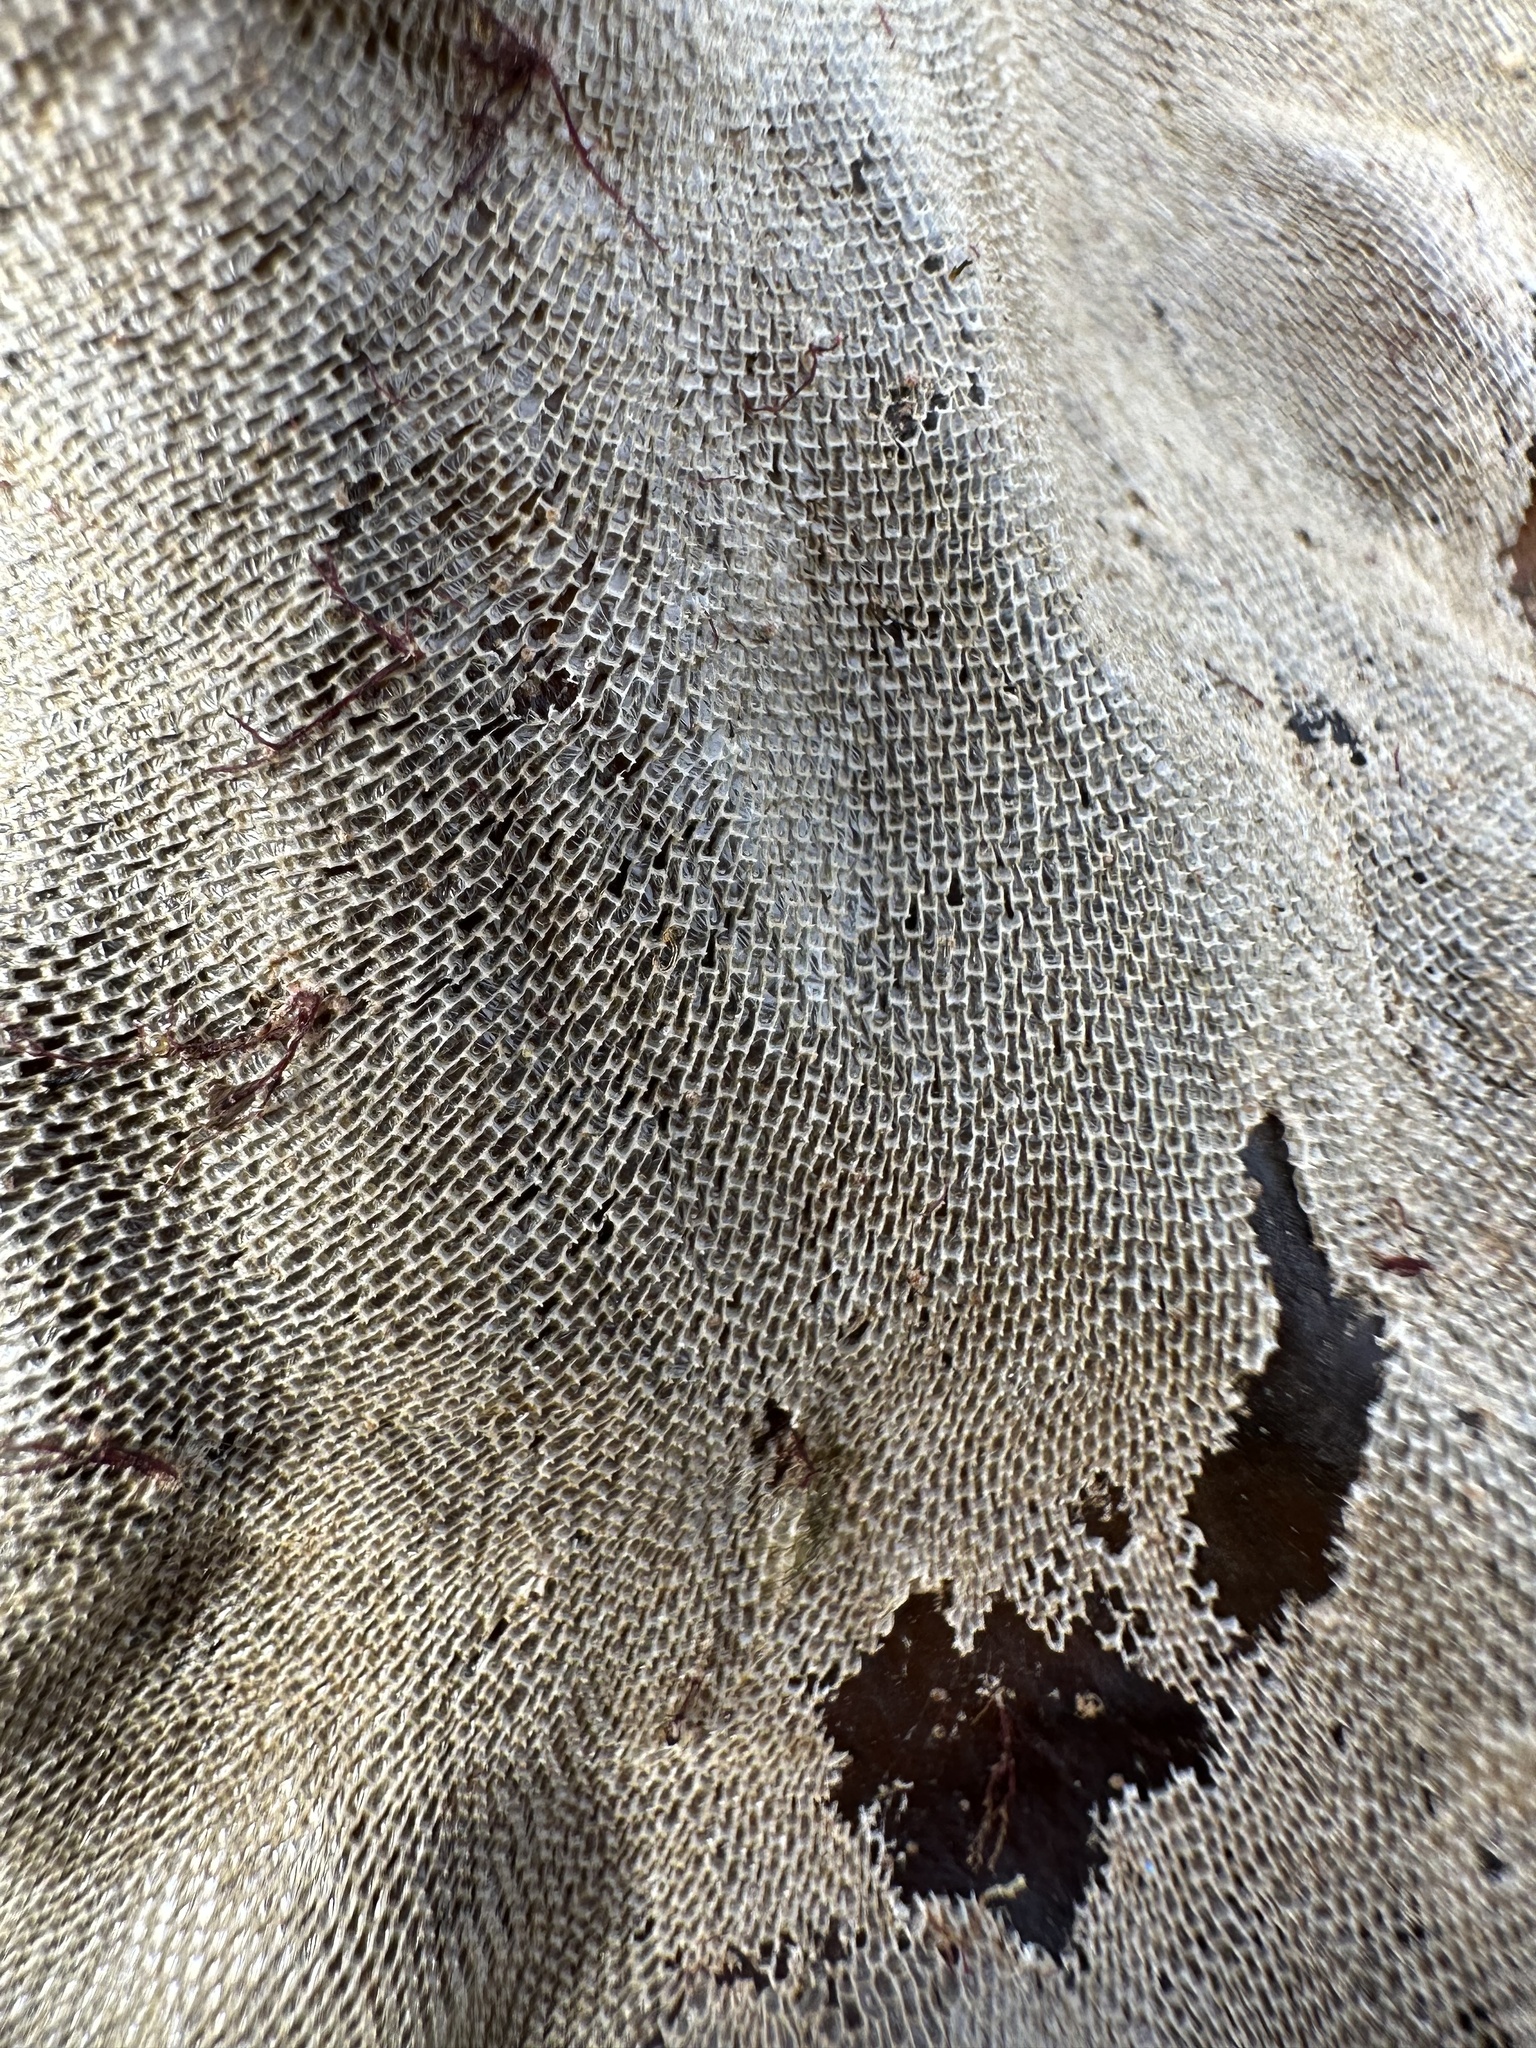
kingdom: Animalia
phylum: Bryozoa
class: Gymnolaemata
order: Cheilostomatida
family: Membraniporidae
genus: Membranipora
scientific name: Membranipora membranacea
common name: Sea mat
